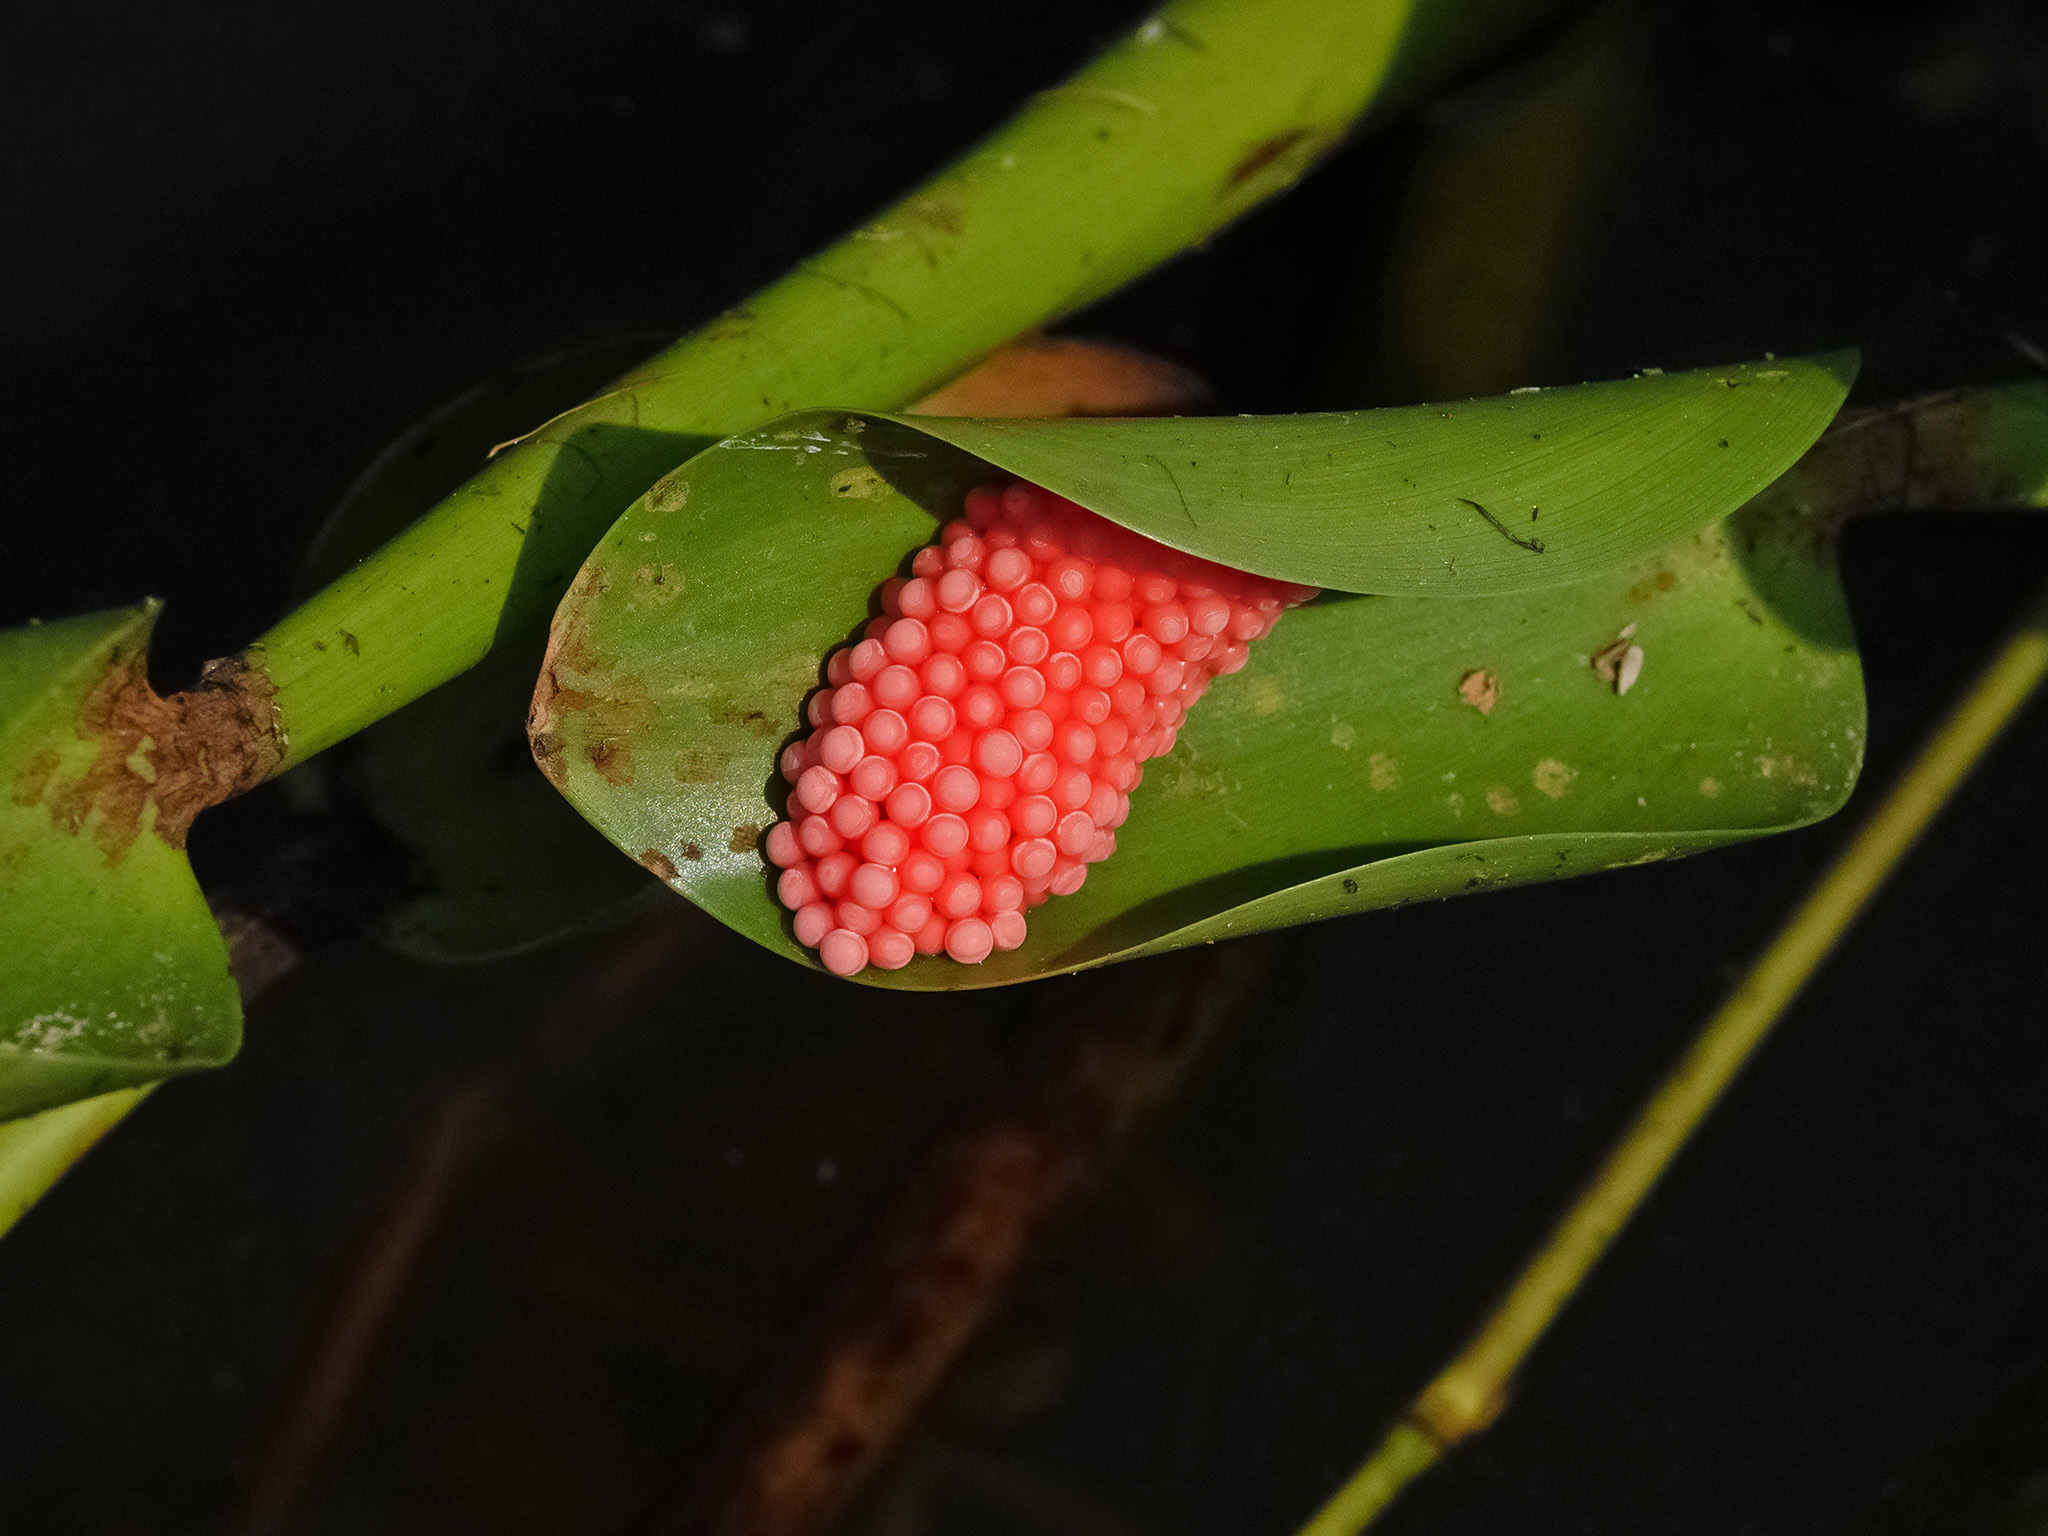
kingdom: Animalia
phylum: Mollusca
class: Gastropoda
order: Architaenioglossa
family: Ampullariidae
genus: Pomacea
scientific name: Pomacea canaliculata
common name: Channeled applesnail
